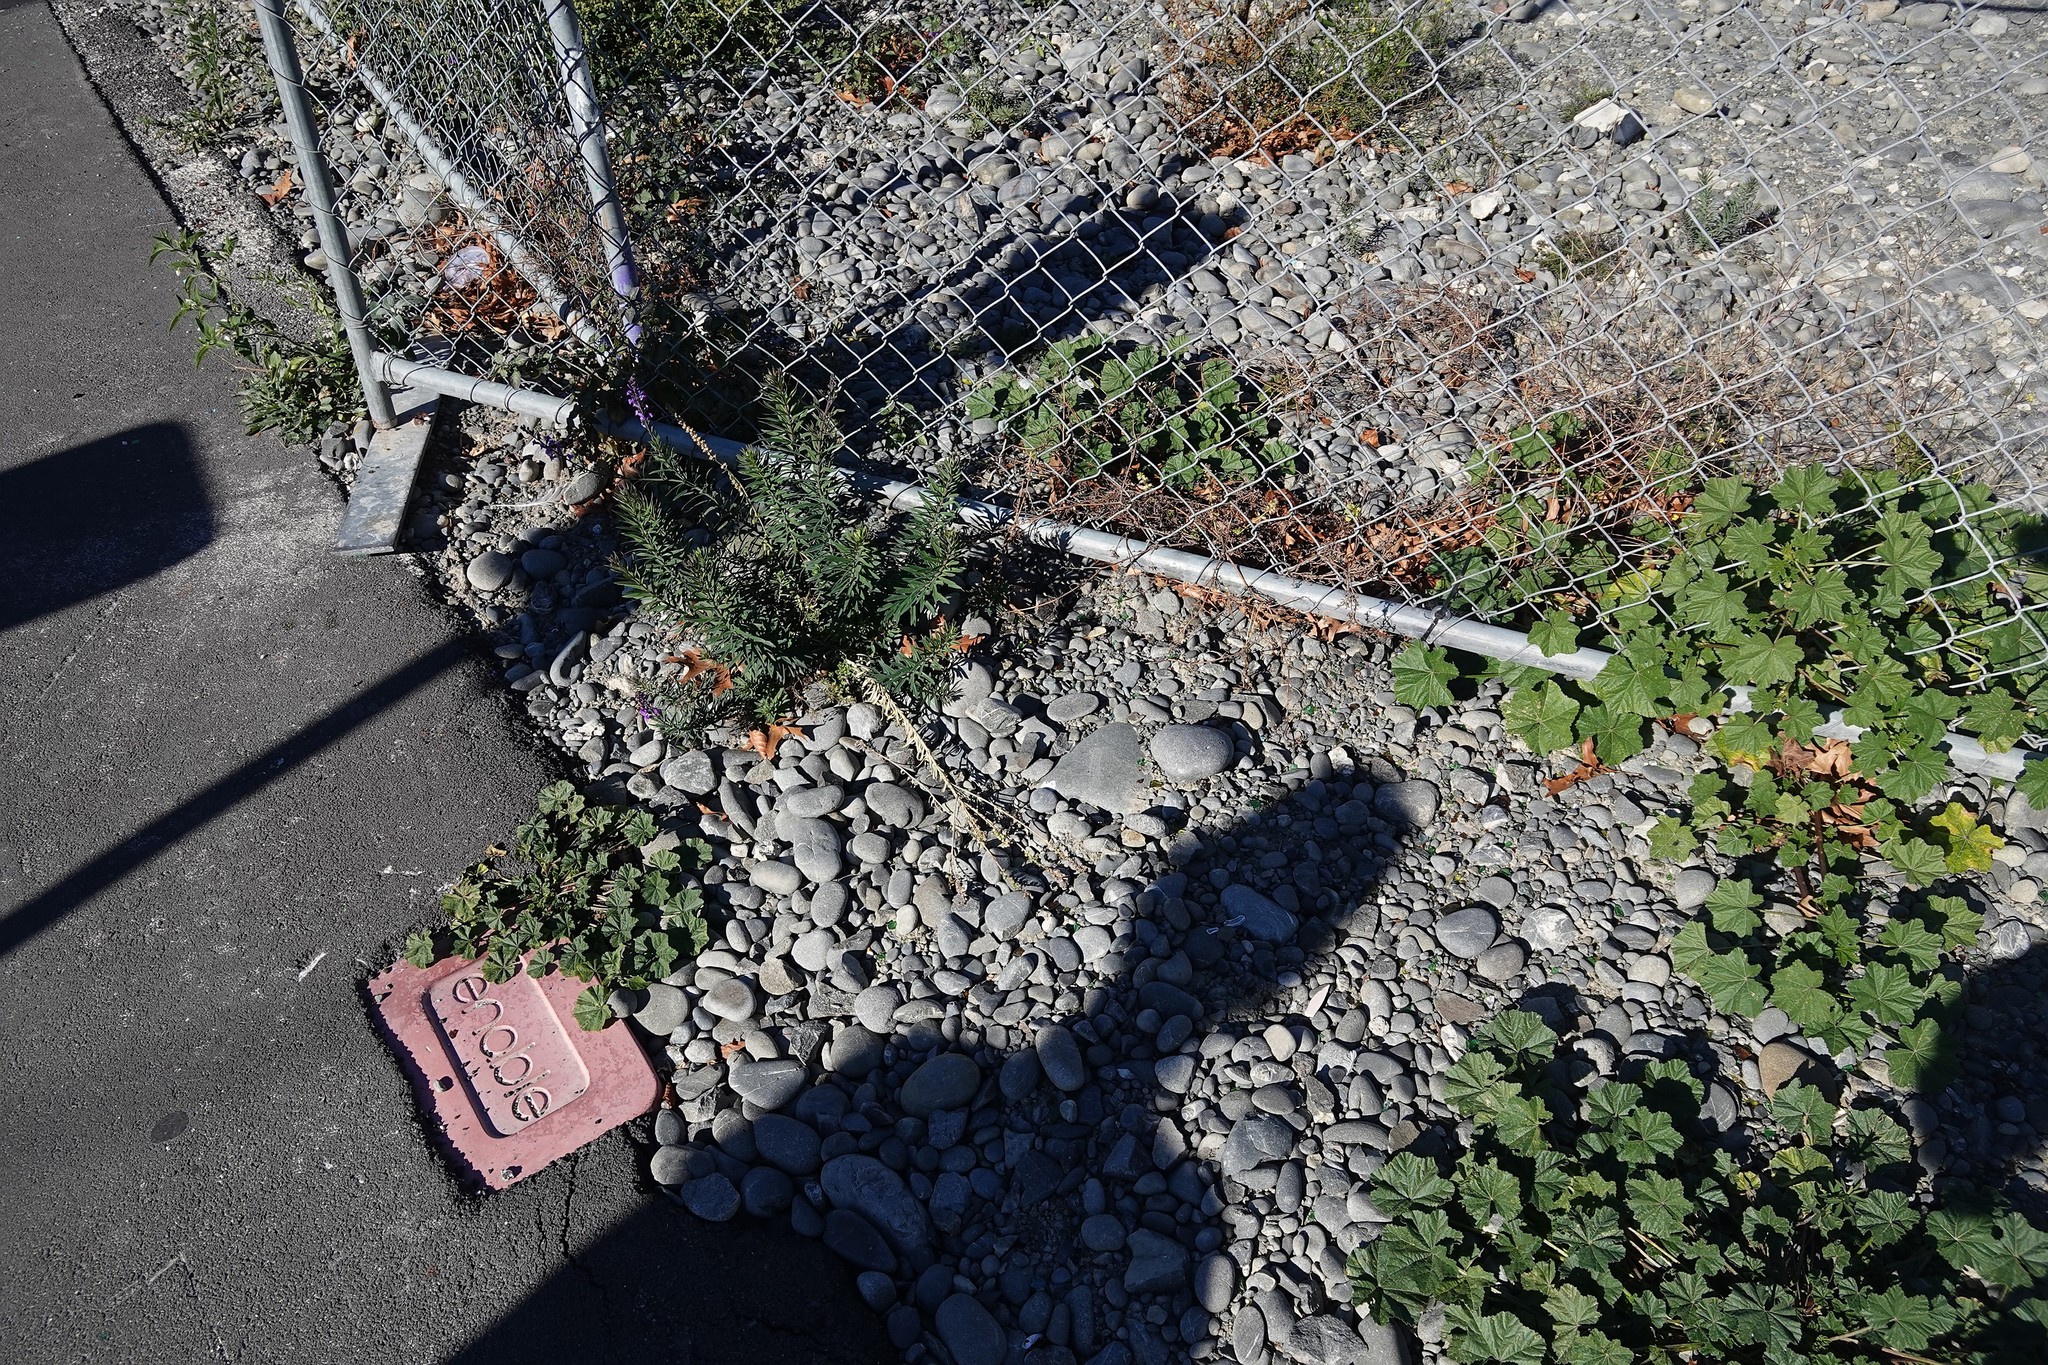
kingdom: Plantae
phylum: Tracheophyta
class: Magnoliopsida
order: Lamiales
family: Plantaginaceae
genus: Linaria
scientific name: Linaria purpurea
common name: Purple toadflax
